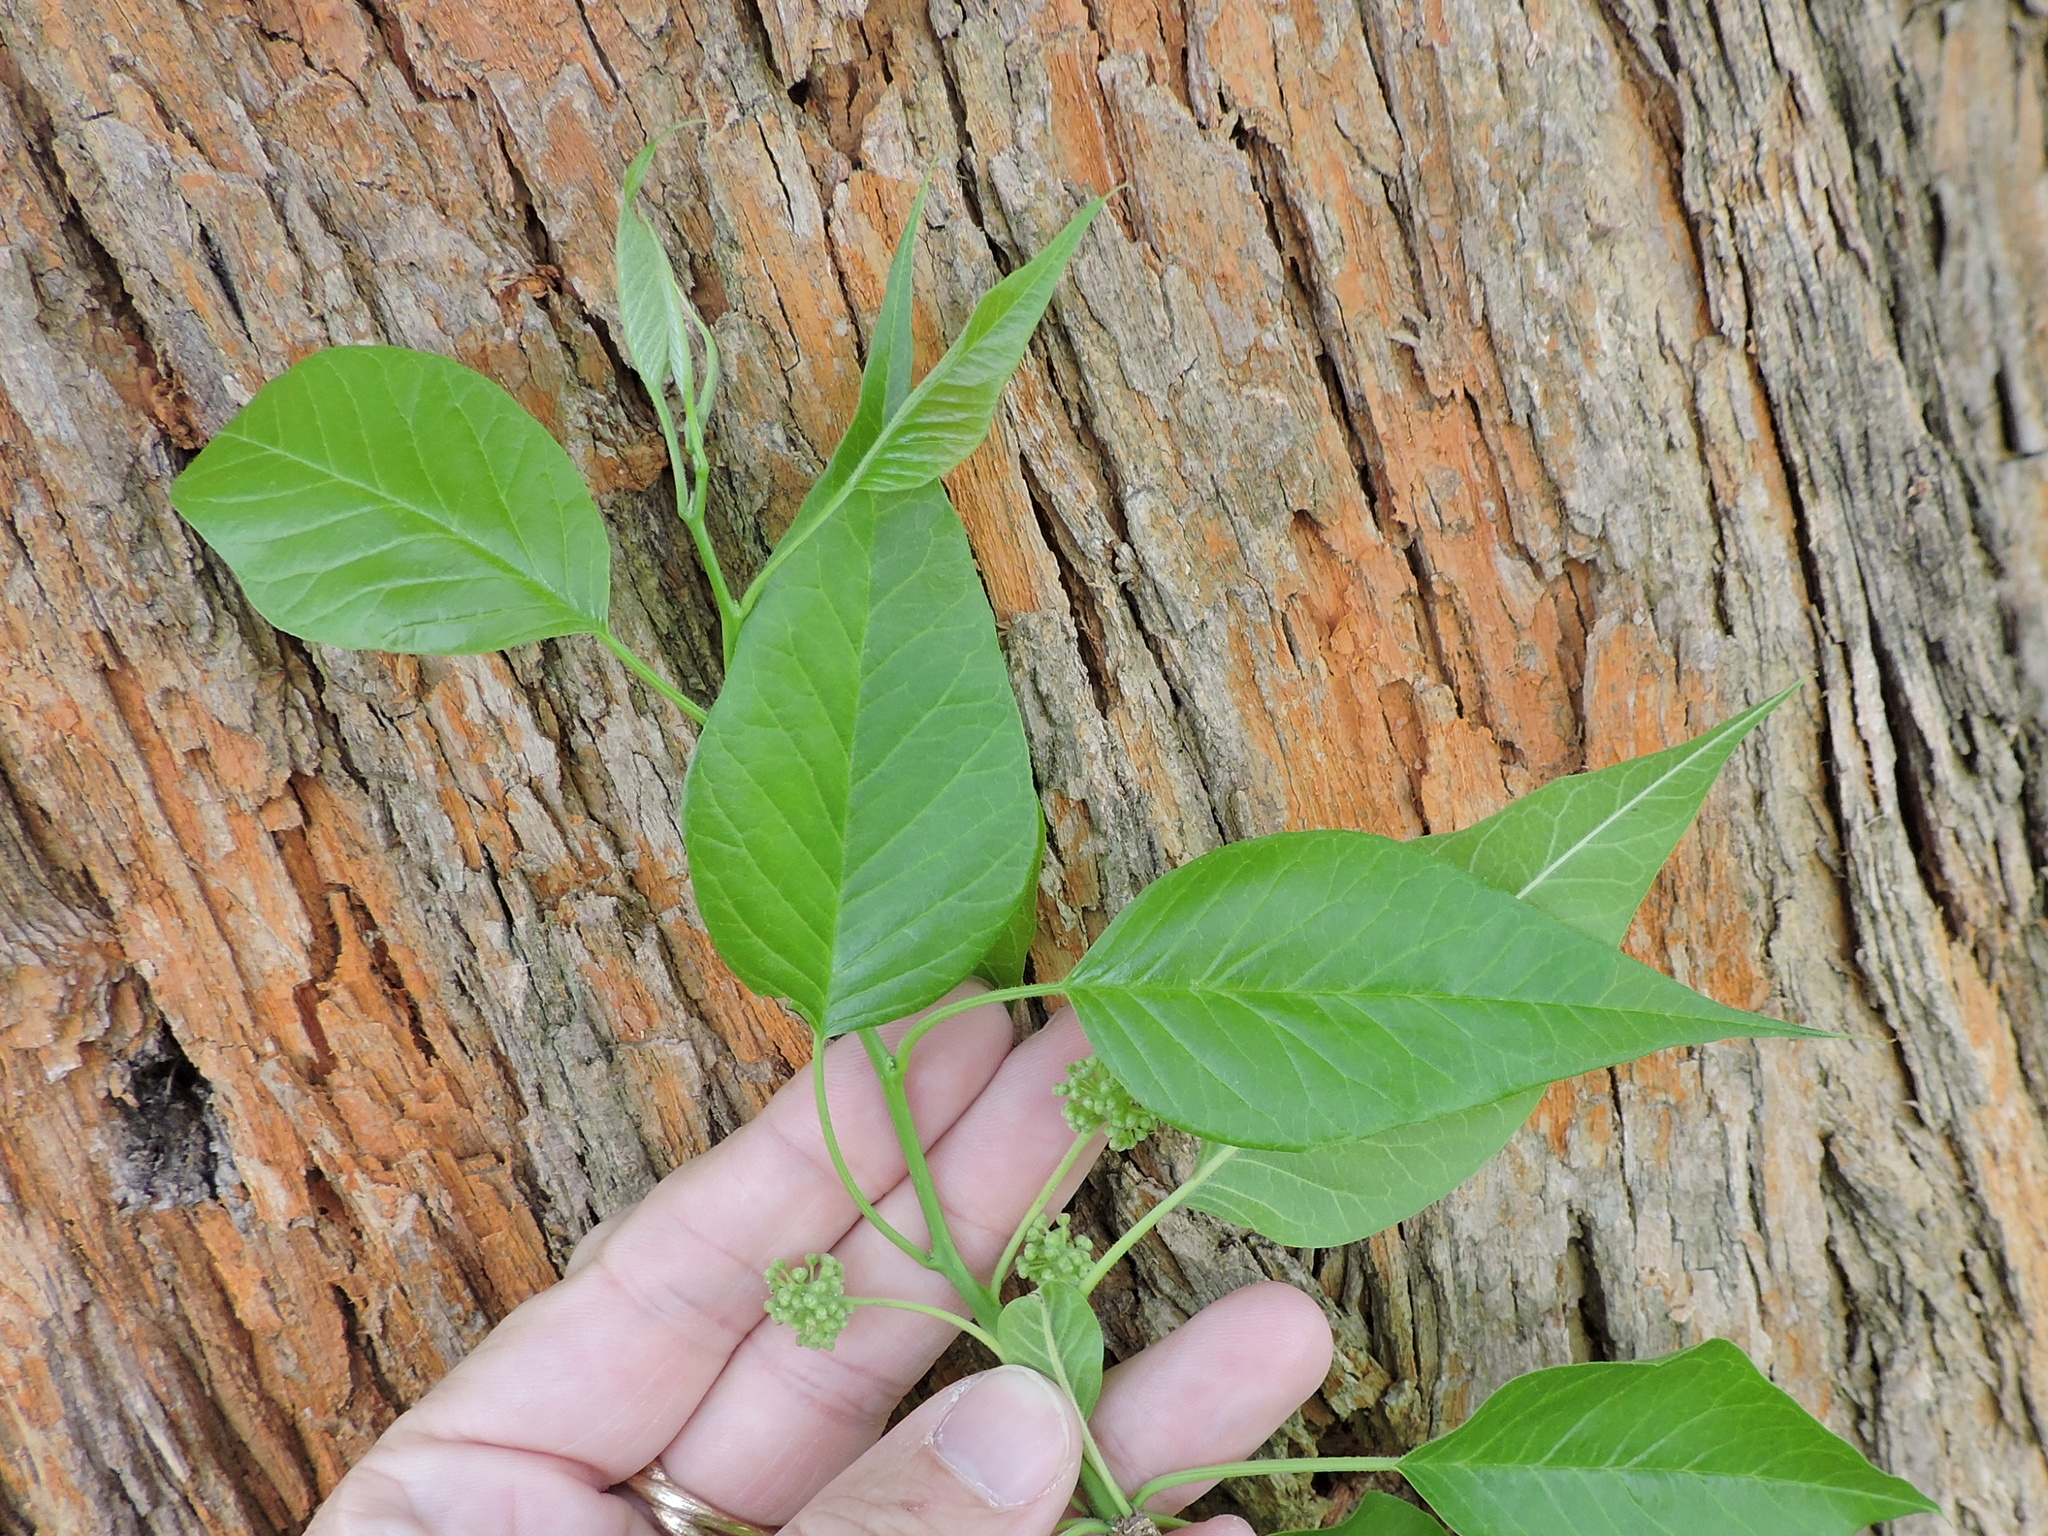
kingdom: Plantae
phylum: Tracheophyta
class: Magnoliopsida
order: Rosales
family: Moraceae
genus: Maclura
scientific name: Maclura pomifera
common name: Osage-orange
